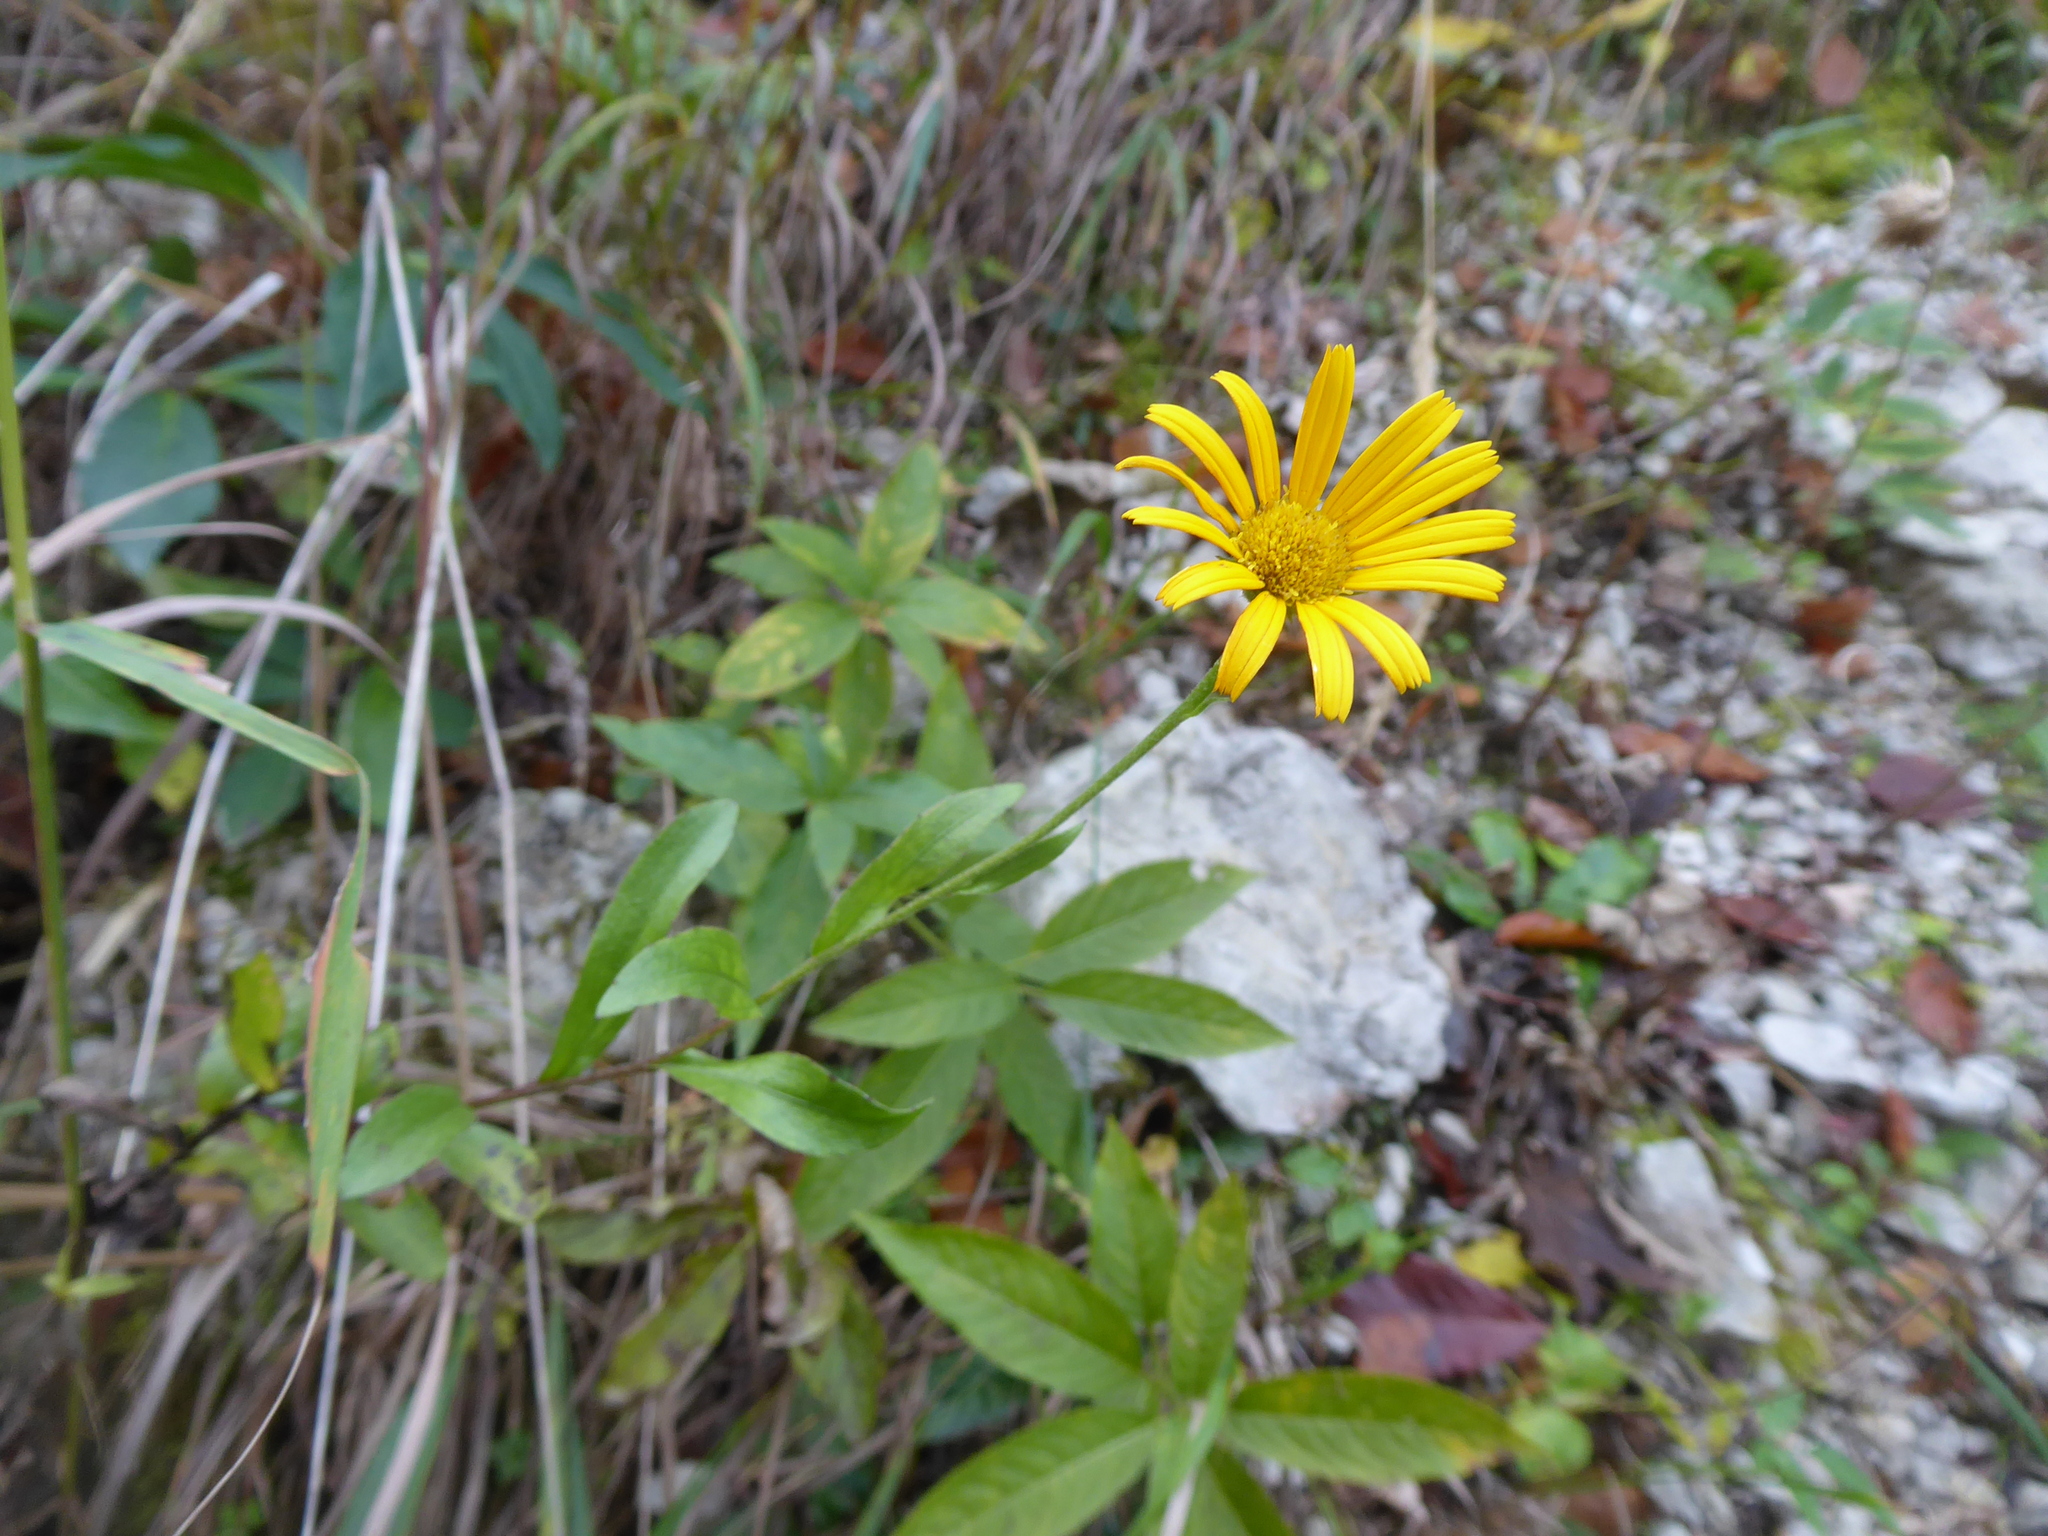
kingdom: Plantae
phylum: Tracheophyta
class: Magnoliopsida
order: Asterales
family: Asteraceae
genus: Buphthalmum
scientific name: Buphthalmum salicifolium
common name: Willow-leaved yellow-oxeye
